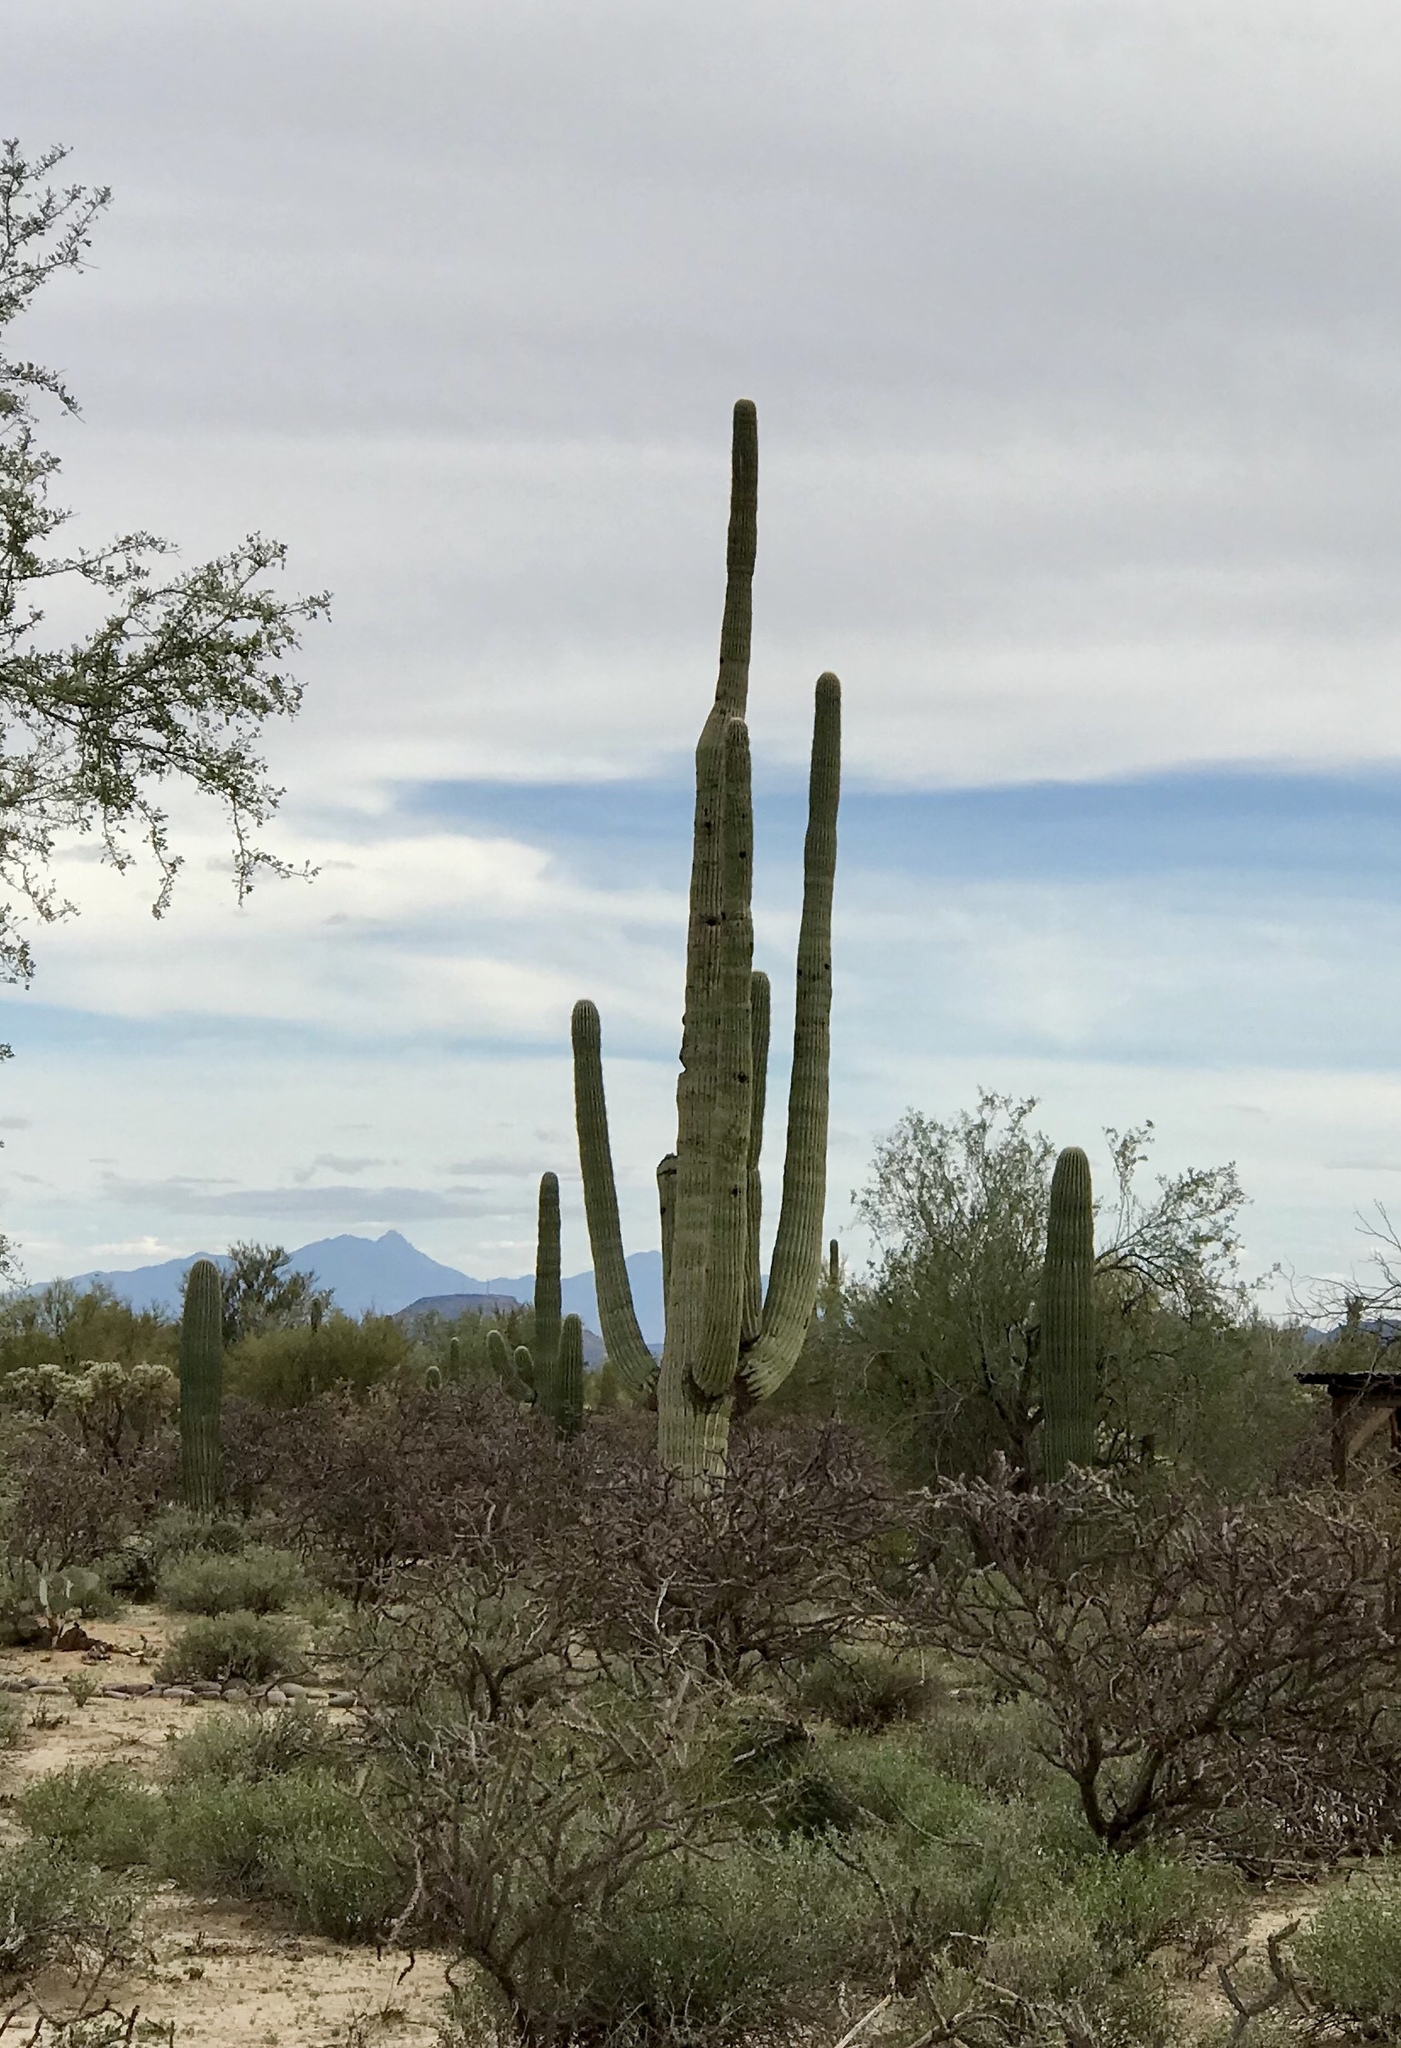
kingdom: Plantae
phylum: Tracheophyta
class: Magnoliopsida
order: Caryophyllales
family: Cactaceae
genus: Carnegiea
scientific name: Carnegiea gigantea
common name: Saguaro
